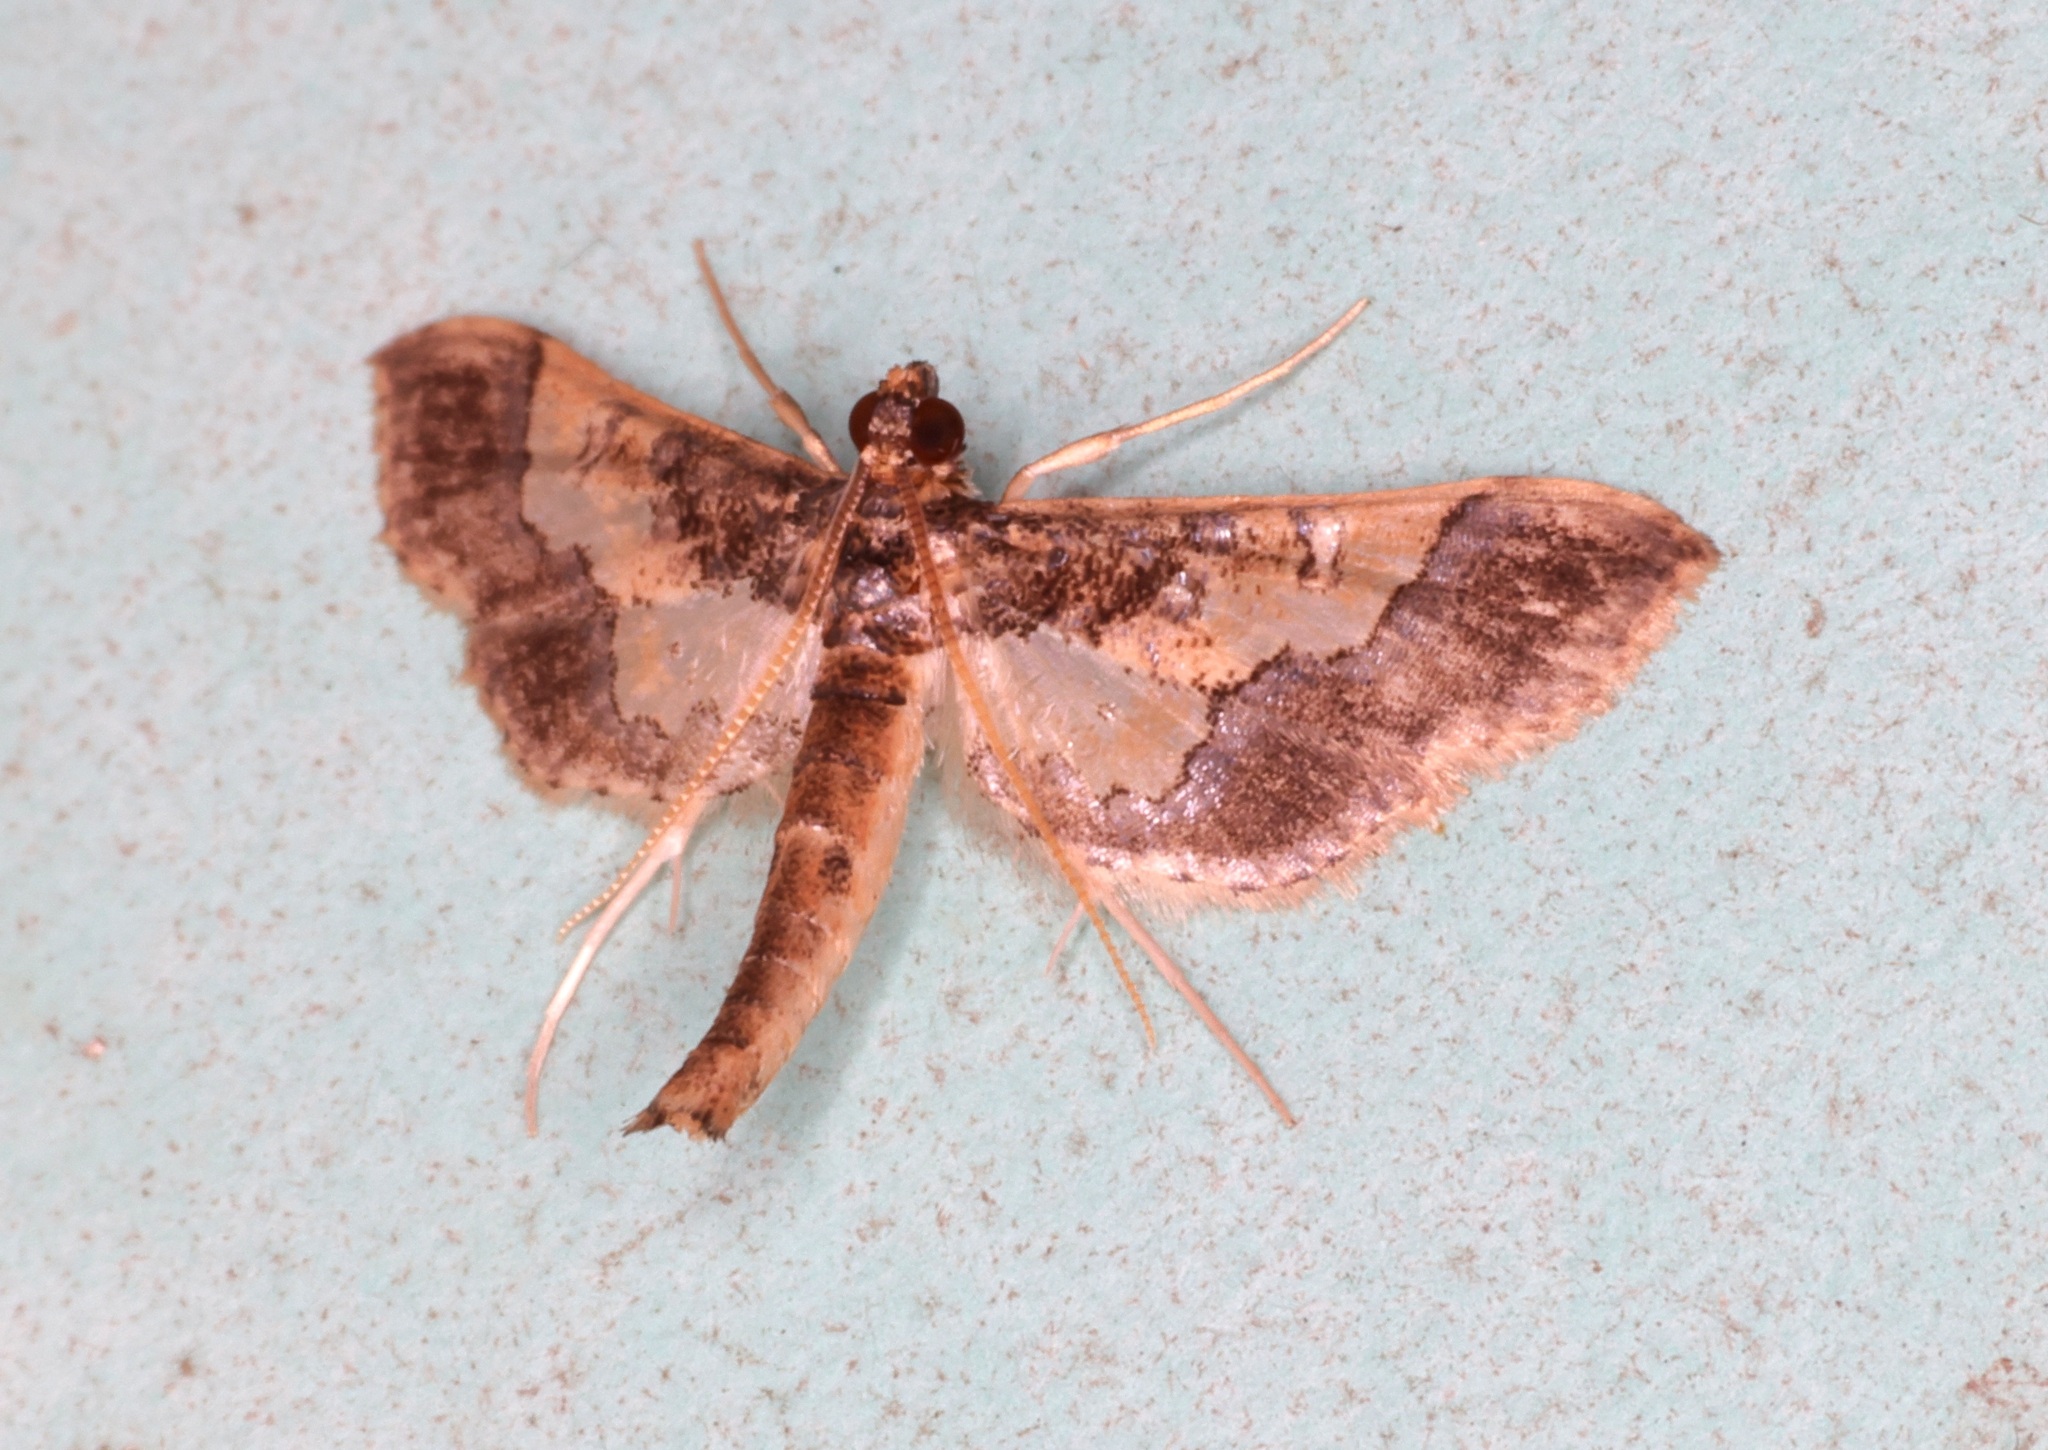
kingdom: Animalia
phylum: Arthropoda
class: Insecta
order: Lepidoptera
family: Crambidae
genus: Hydriris
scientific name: Hydriris ornatalis
